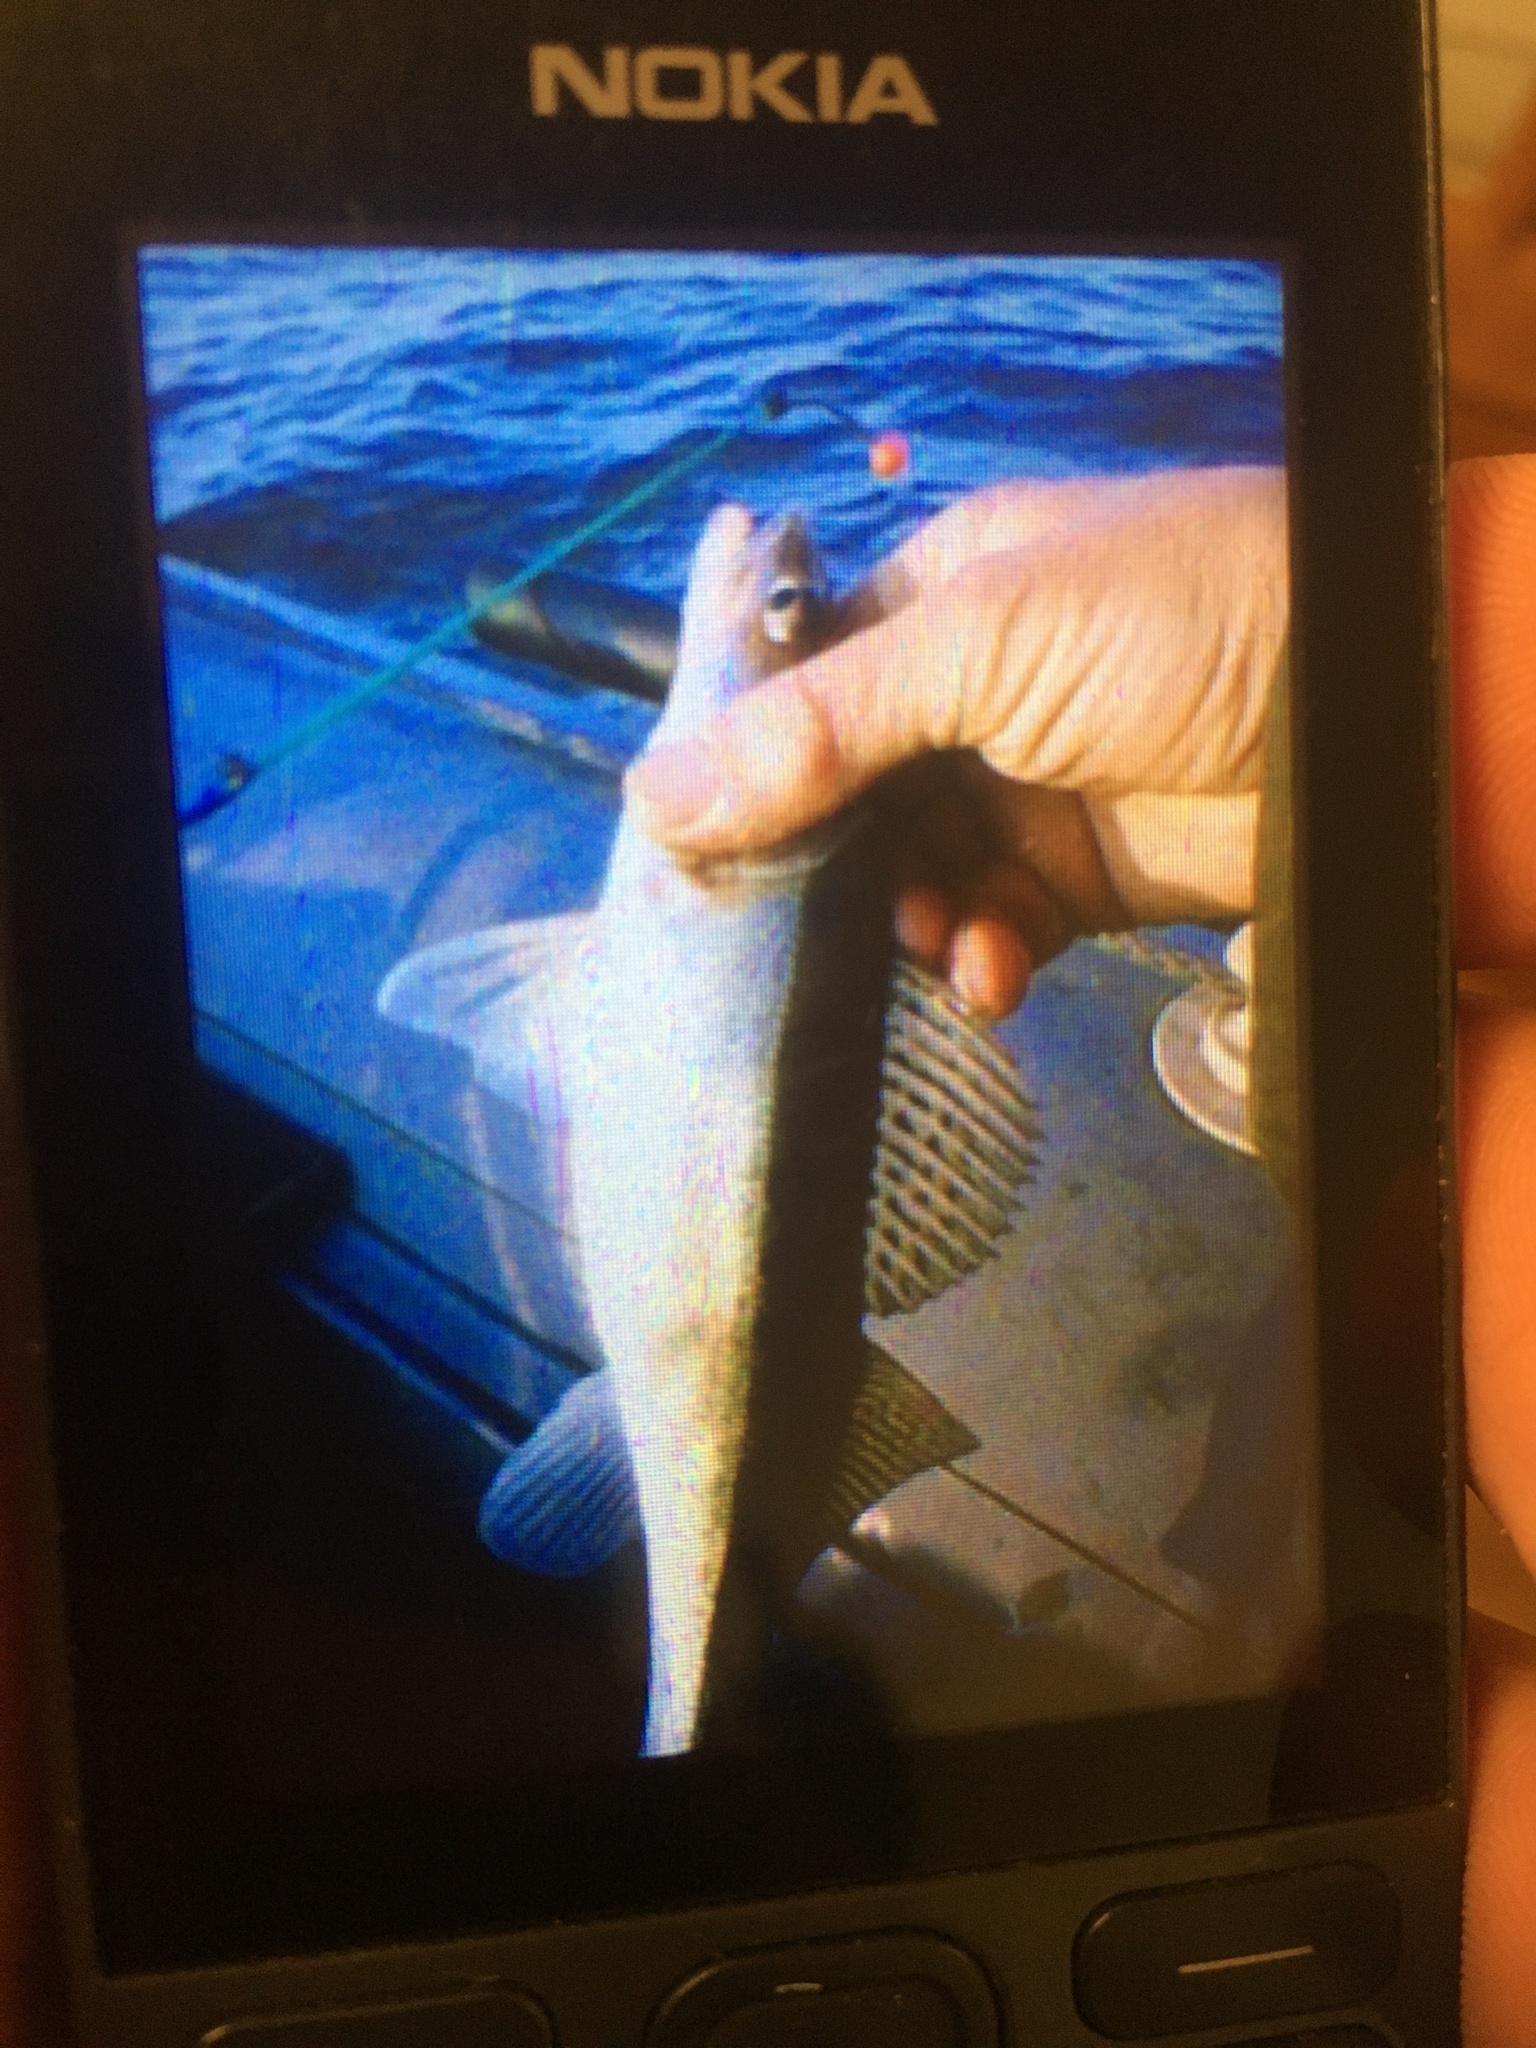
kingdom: Animalia
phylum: Chordata
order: Perciformes
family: Percidae
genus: Sander
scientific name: Sander lucioperca
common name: Pikeperch
